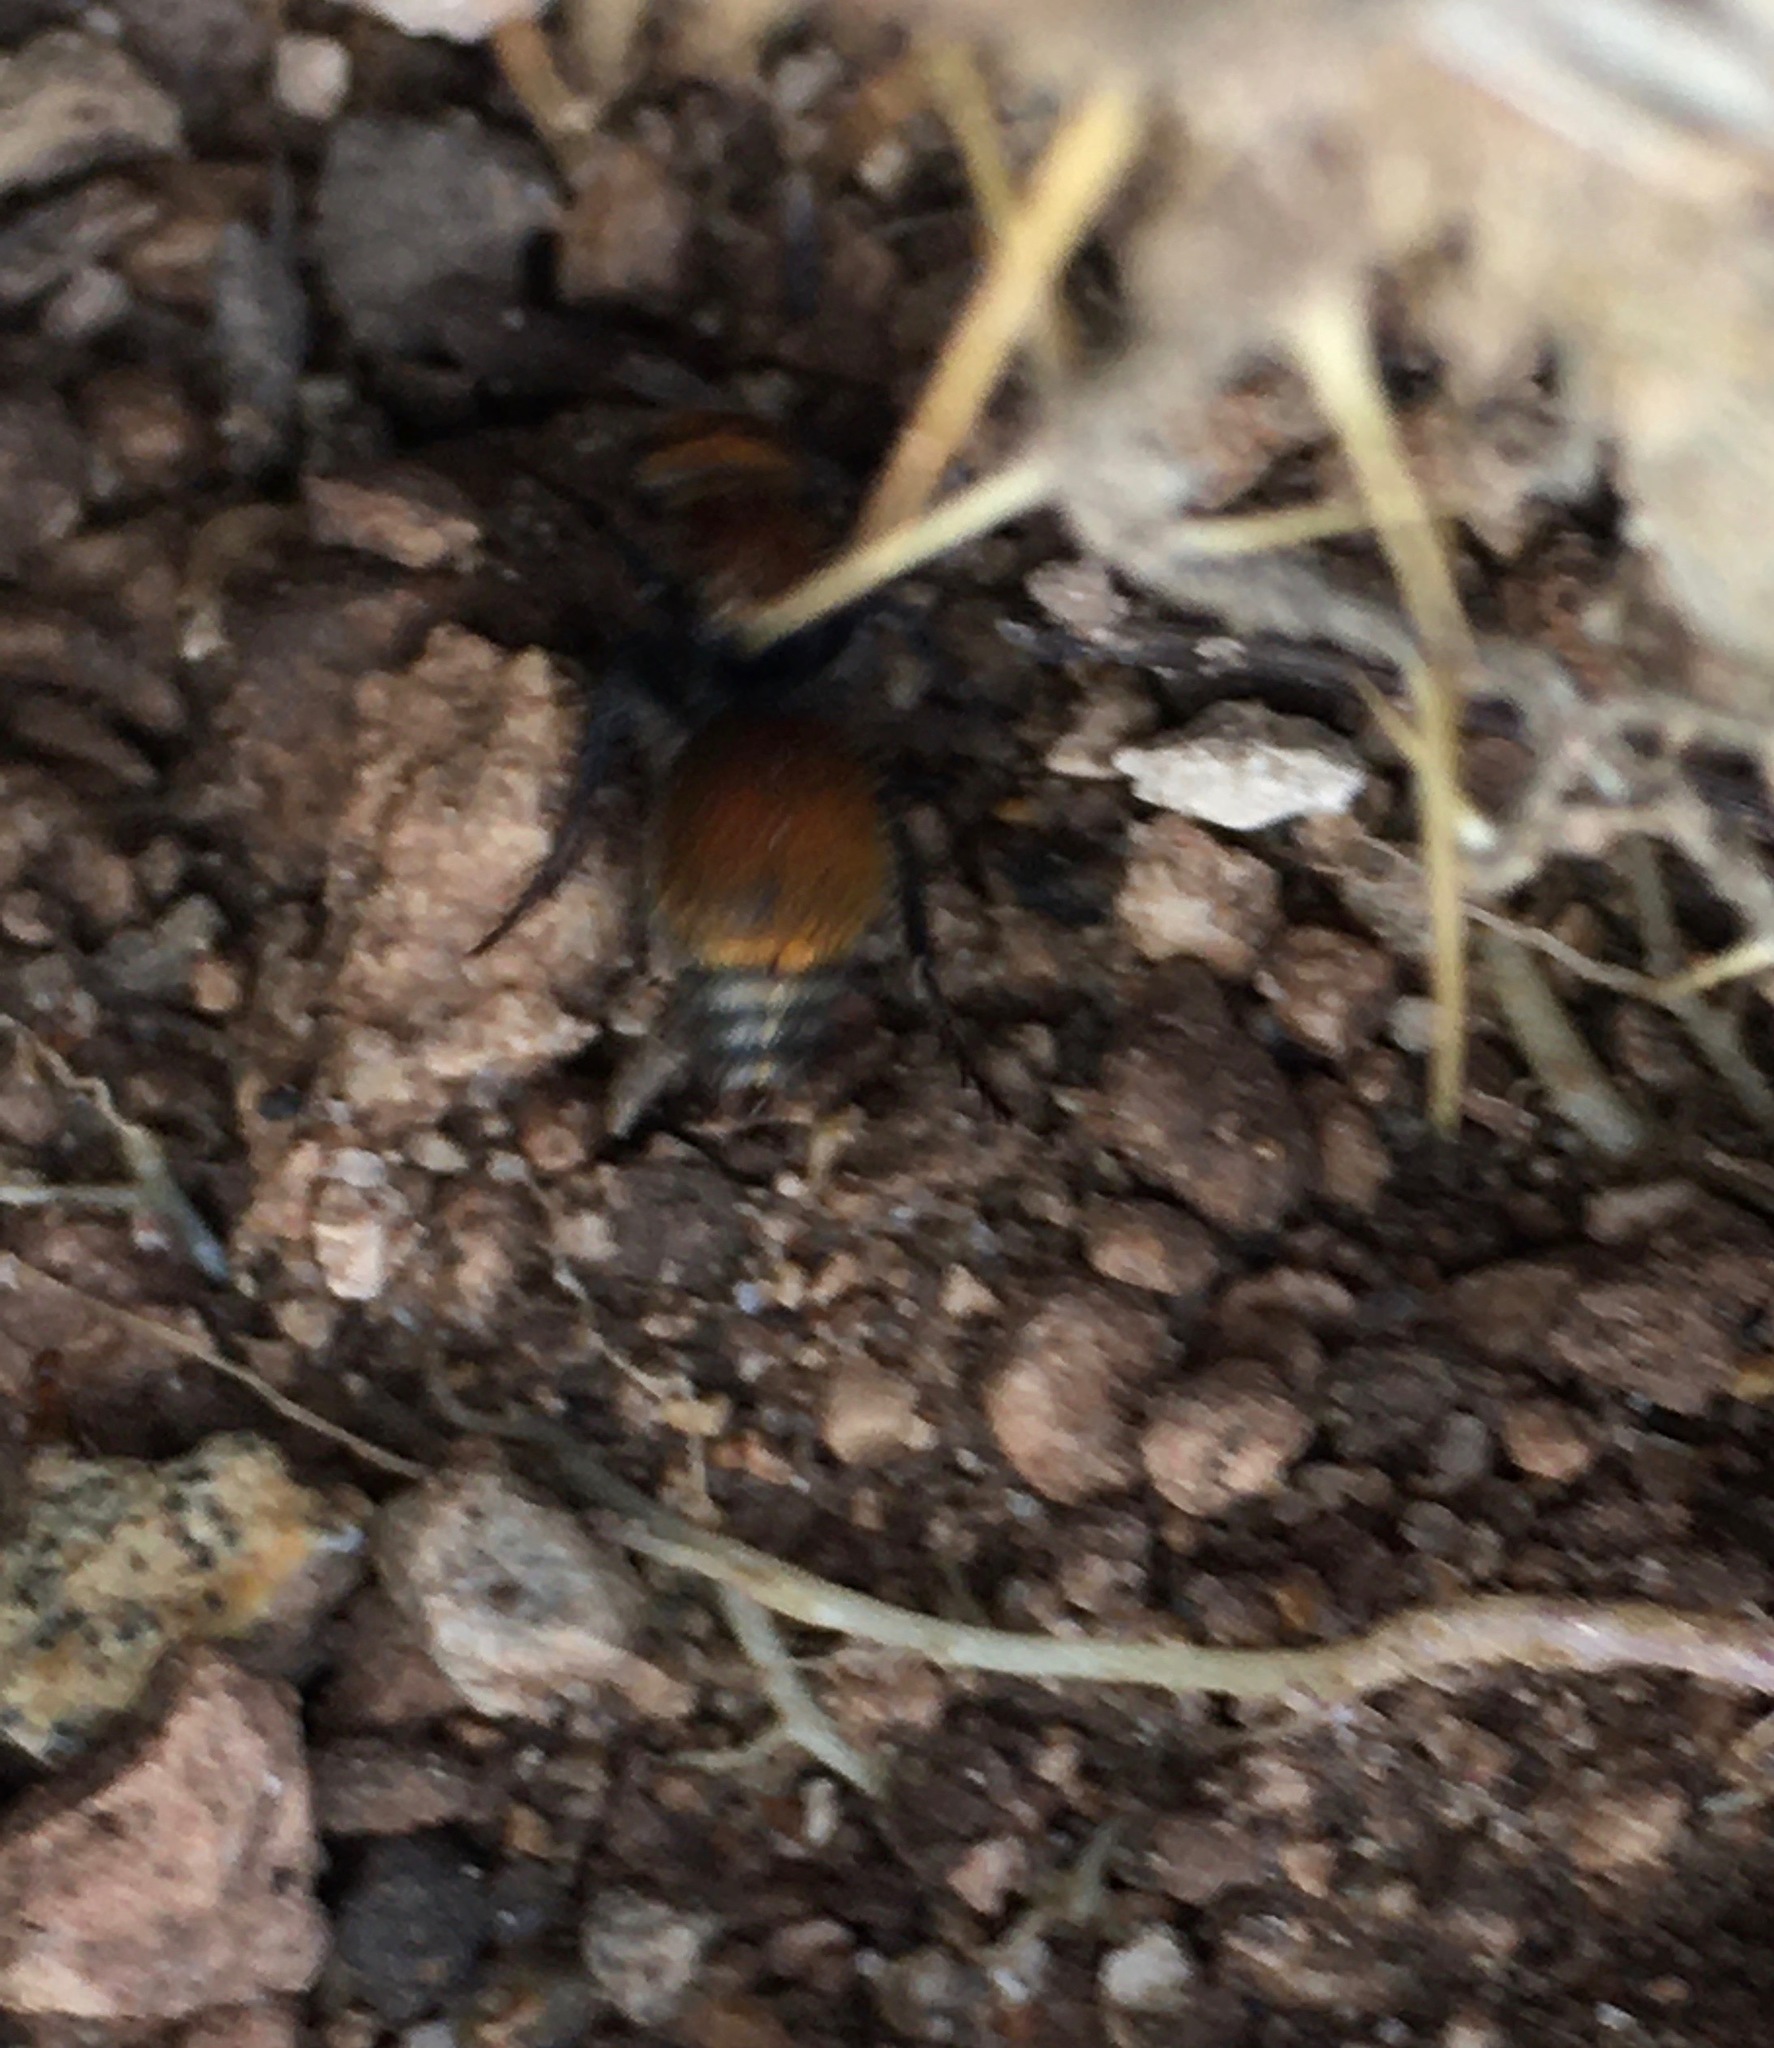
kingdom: Animalia
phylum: Arthropoda
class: Insecta
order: Hymenoptera
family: Mutillidae
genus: Pseudomethoca
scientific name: Pseudomethoca
